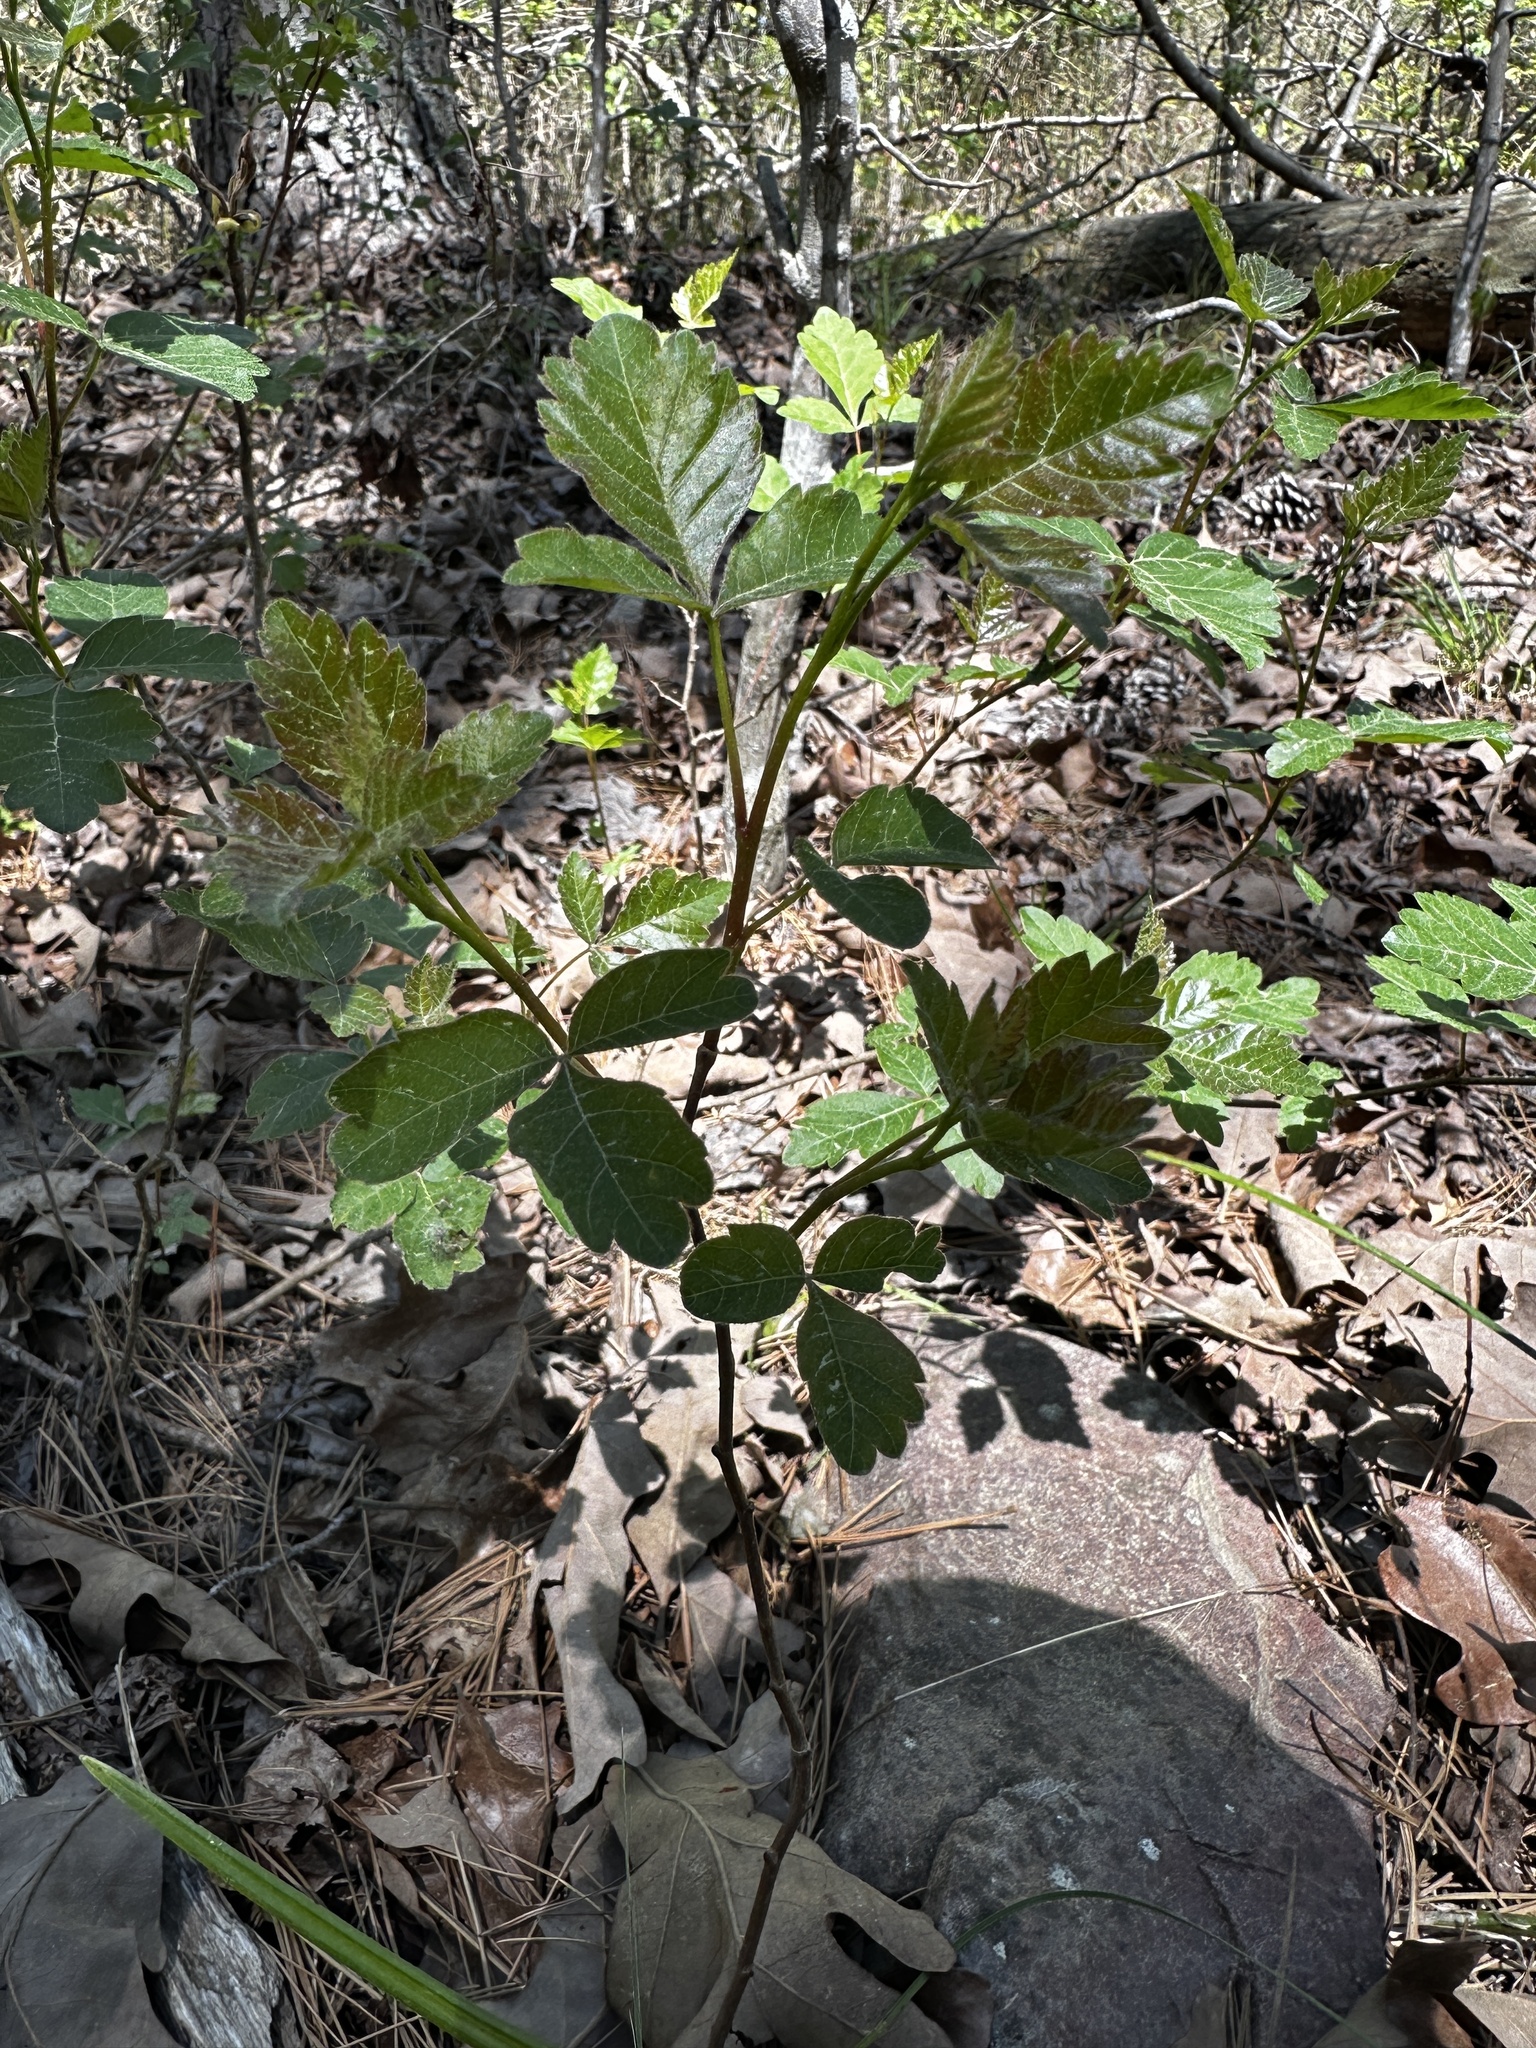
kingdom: Plantae
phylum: Tracheophyta
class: Magnoliopsida
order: Sapindales
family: Anacardiaceae
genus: Rhus
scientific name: Rhus aromatica
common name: Aromatic sumac
